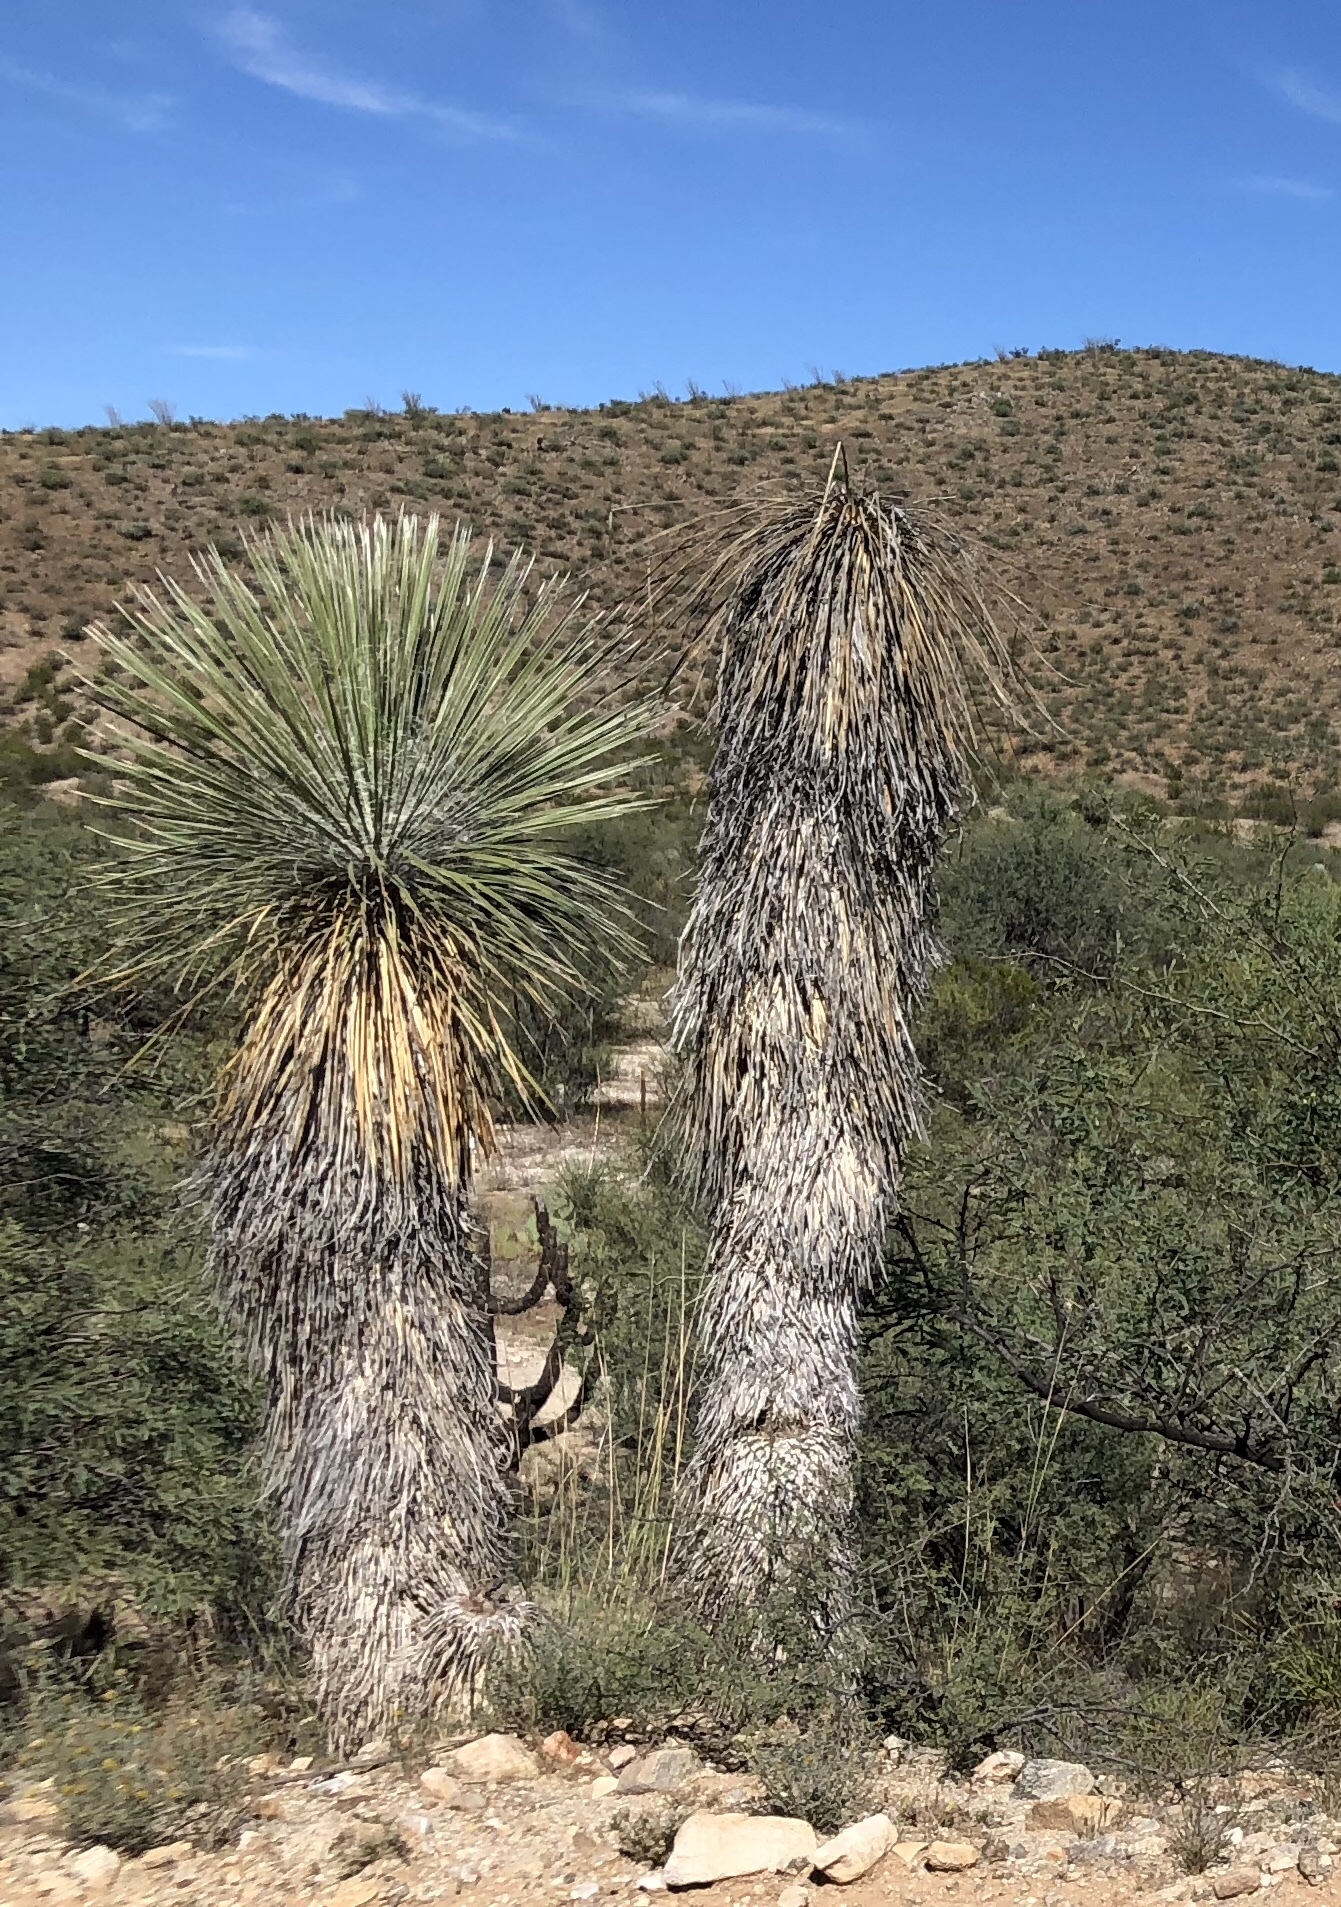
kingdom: Plantae
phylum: Tracheophyta
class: Liliopsida
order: Asparagales
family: Asparagaceae
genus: Yucca
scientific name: Yucca elata
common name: Palmella
